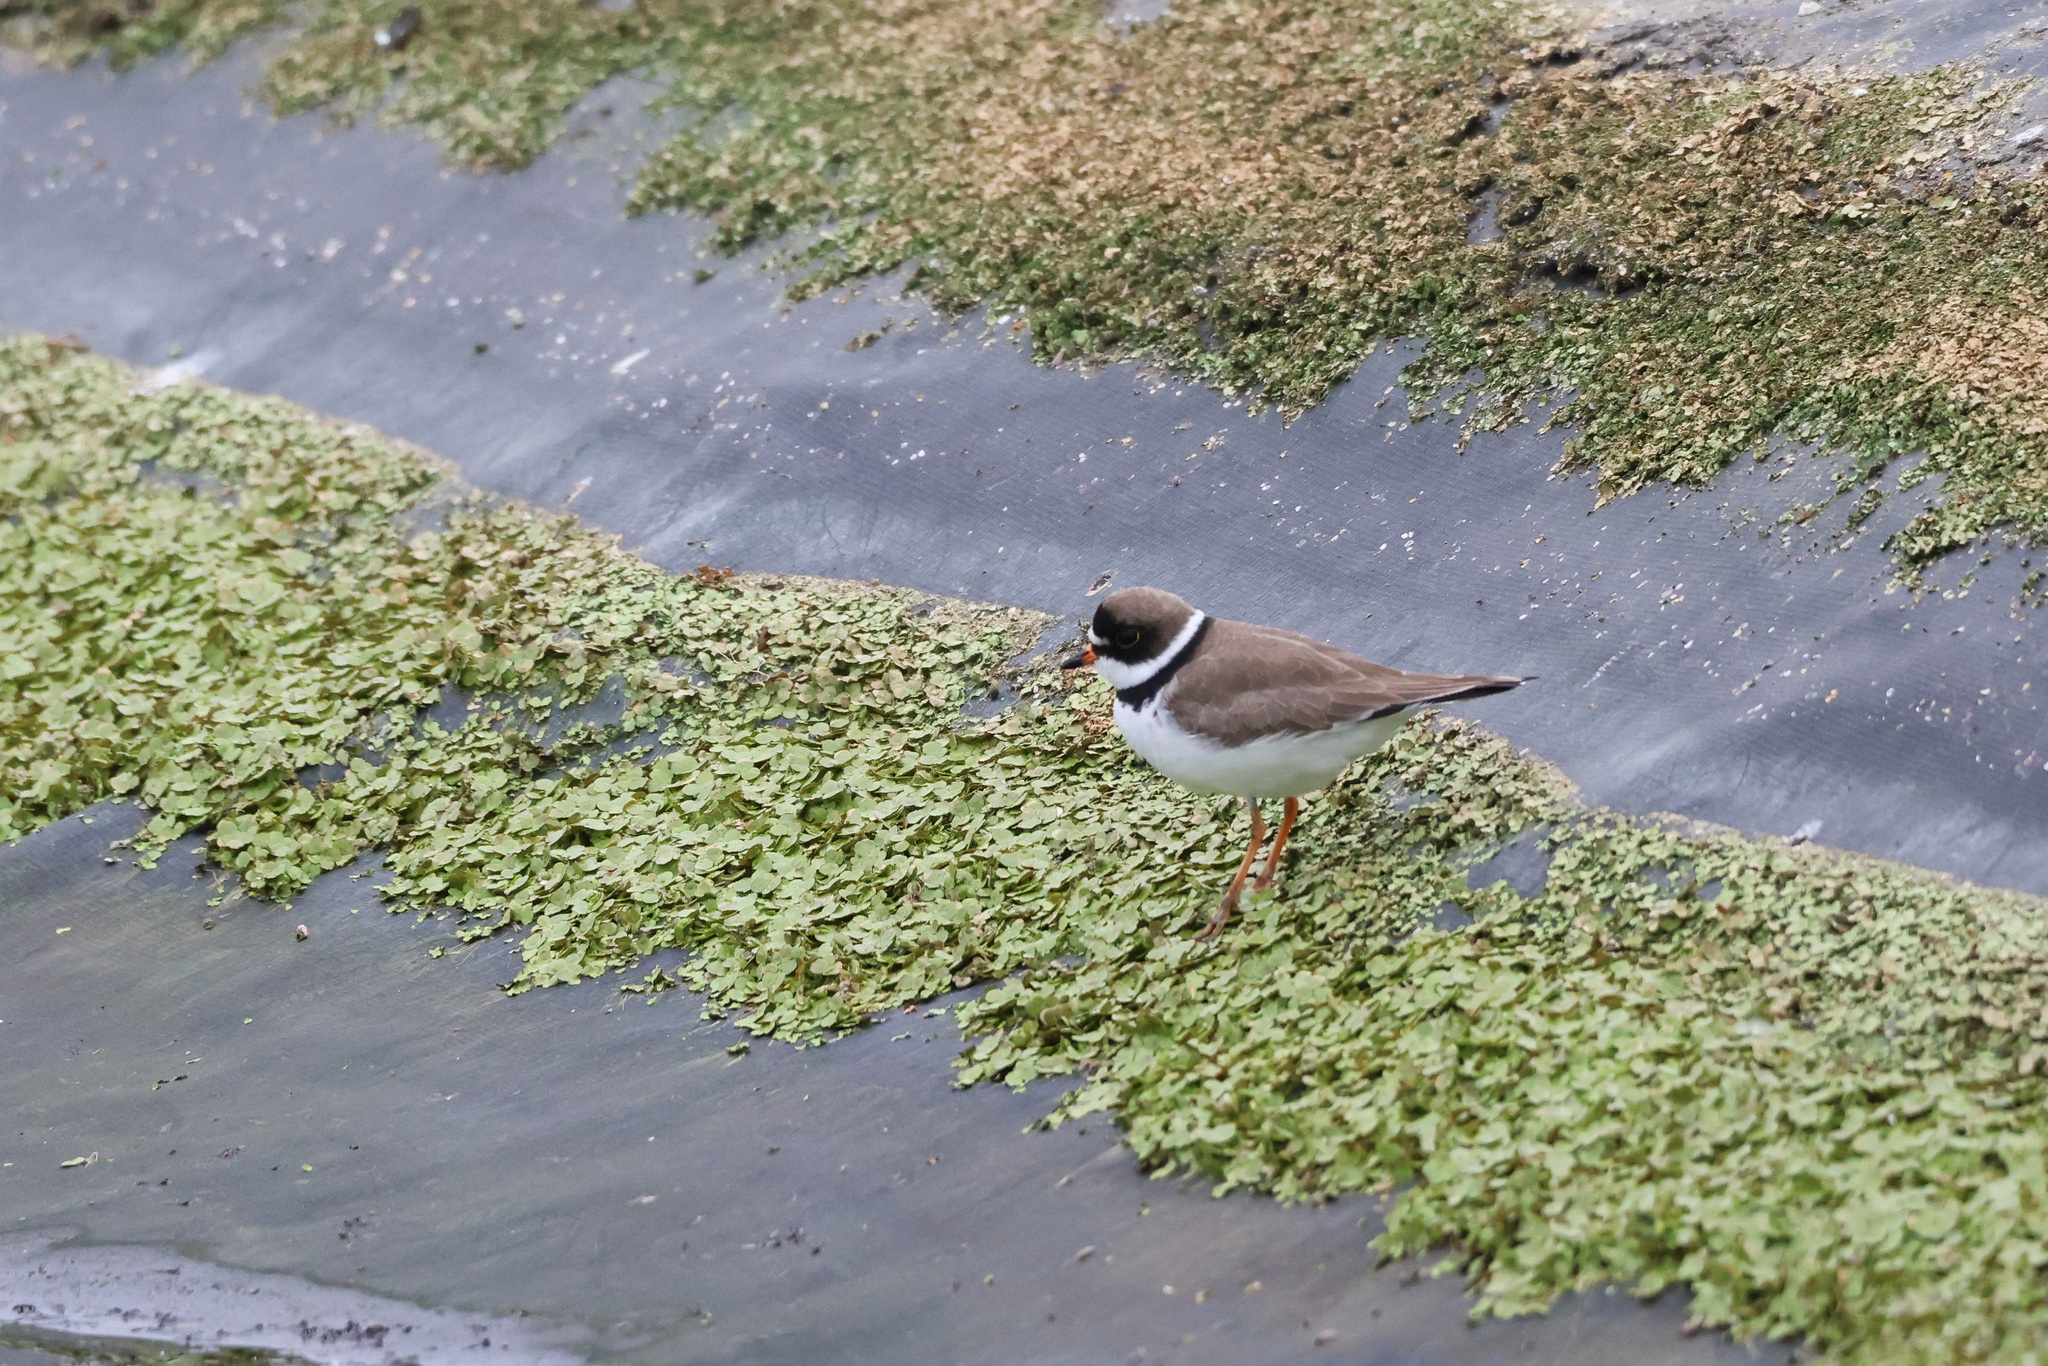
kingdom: Animalia
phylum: Chordata
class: Aves
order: Charadriiformes
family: Charadriidae
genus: Charadrius
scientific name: Charadrius semipalmatus
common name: Semipalmated plover
